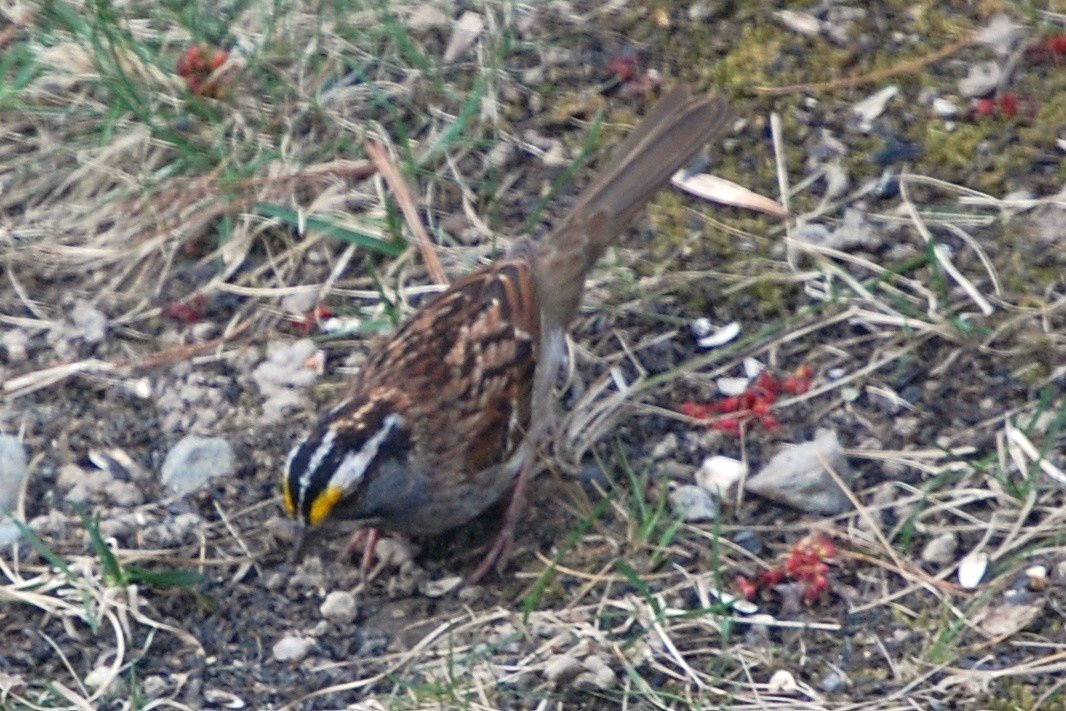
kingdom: Animalia
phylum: Chordata
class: Aves
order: Passeriformes
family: Passerellidae
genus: Zonotrichia
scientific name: Zonotrichia albicollis
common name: White-throated sparrow
